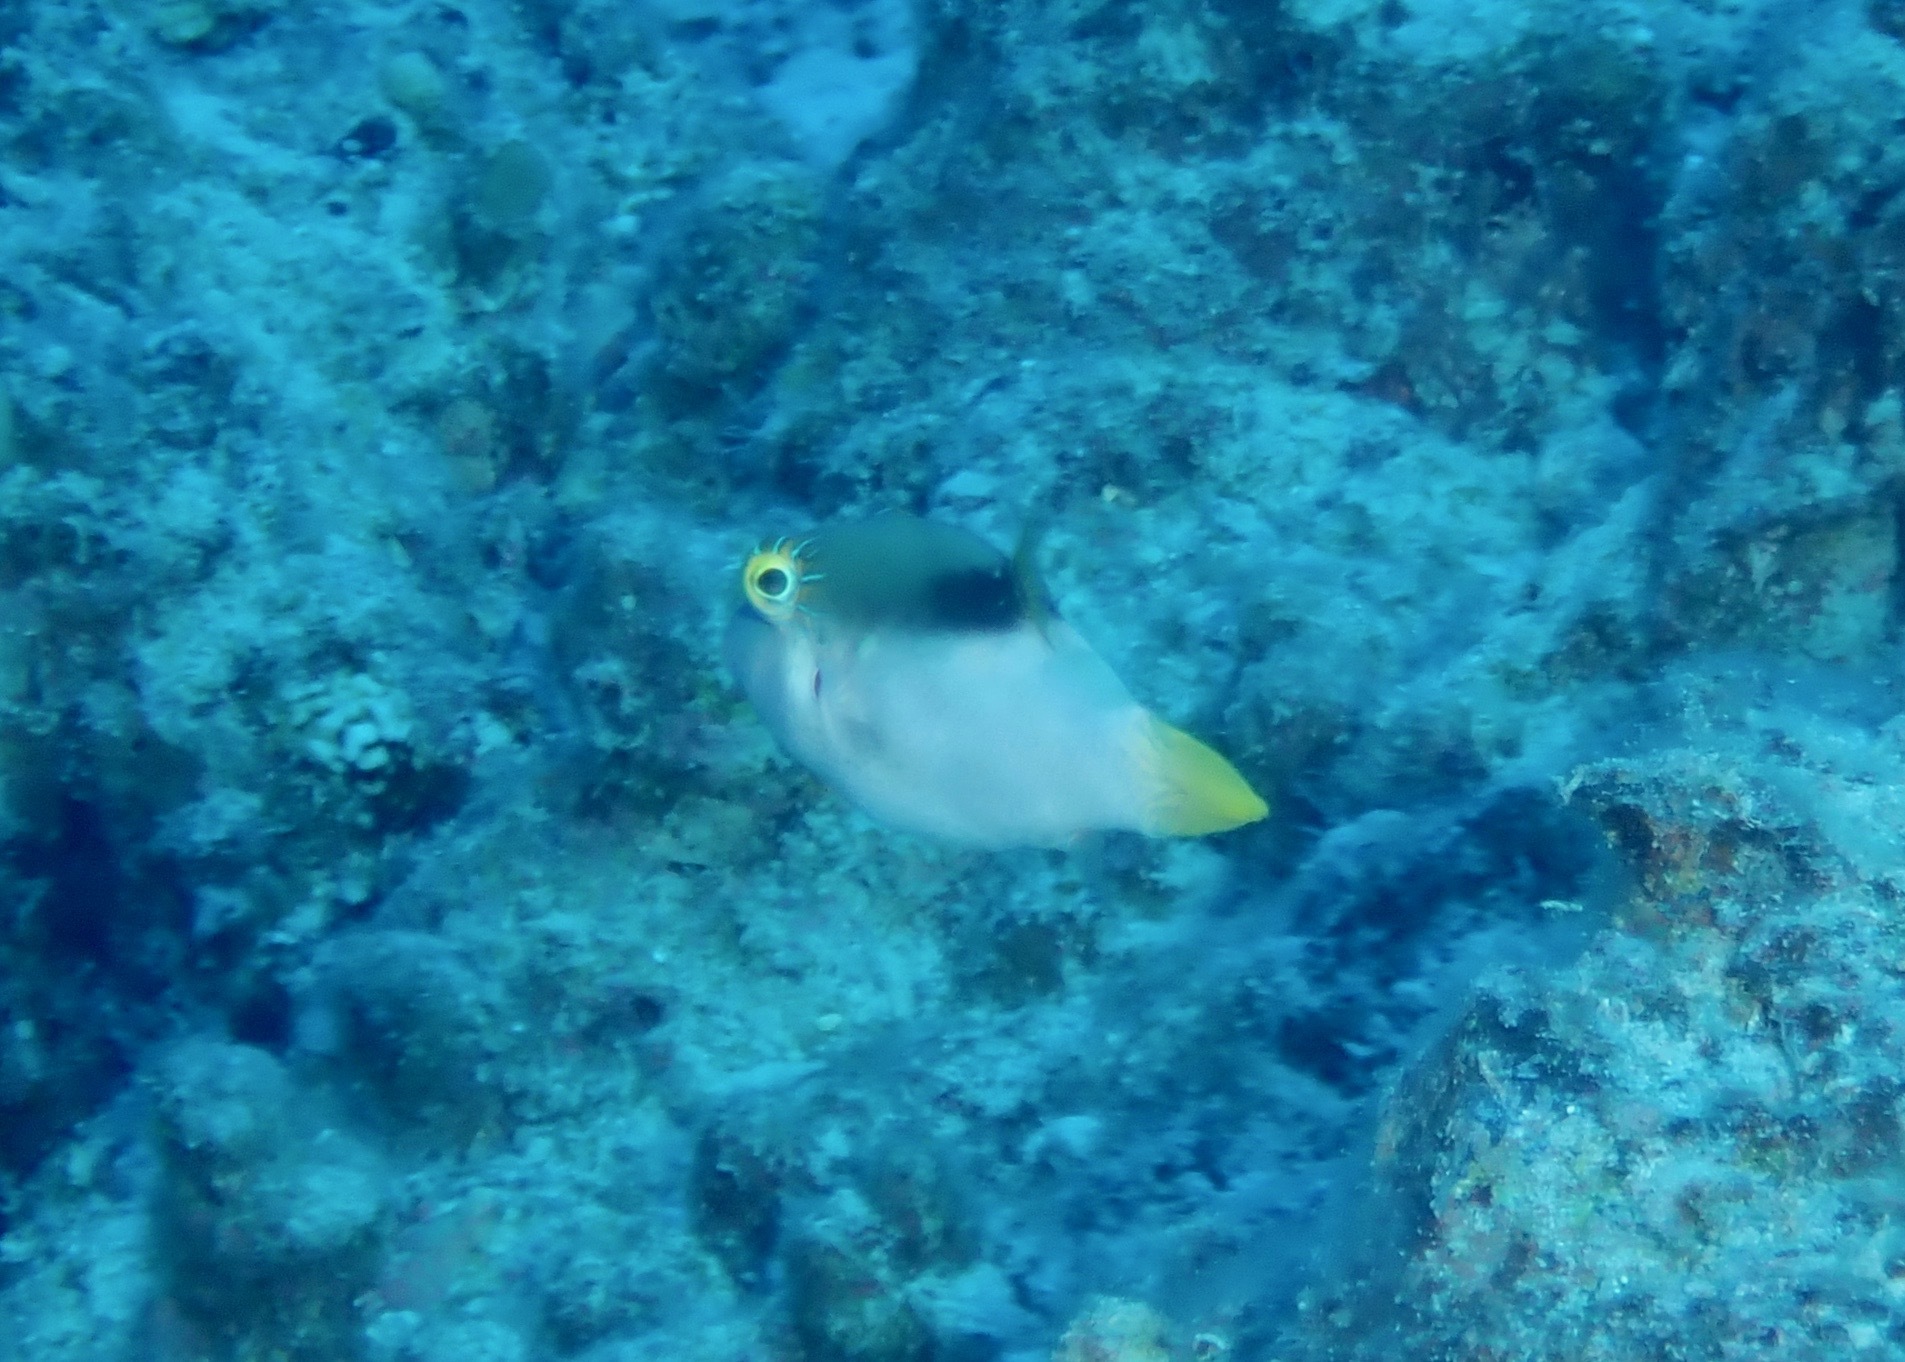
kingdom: Animalia
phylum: Chordata
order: Tetraodontiformes
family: Tetraodontidae
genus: Canthigaster
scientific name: Canthigaster epilampra
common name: Lantern toby
